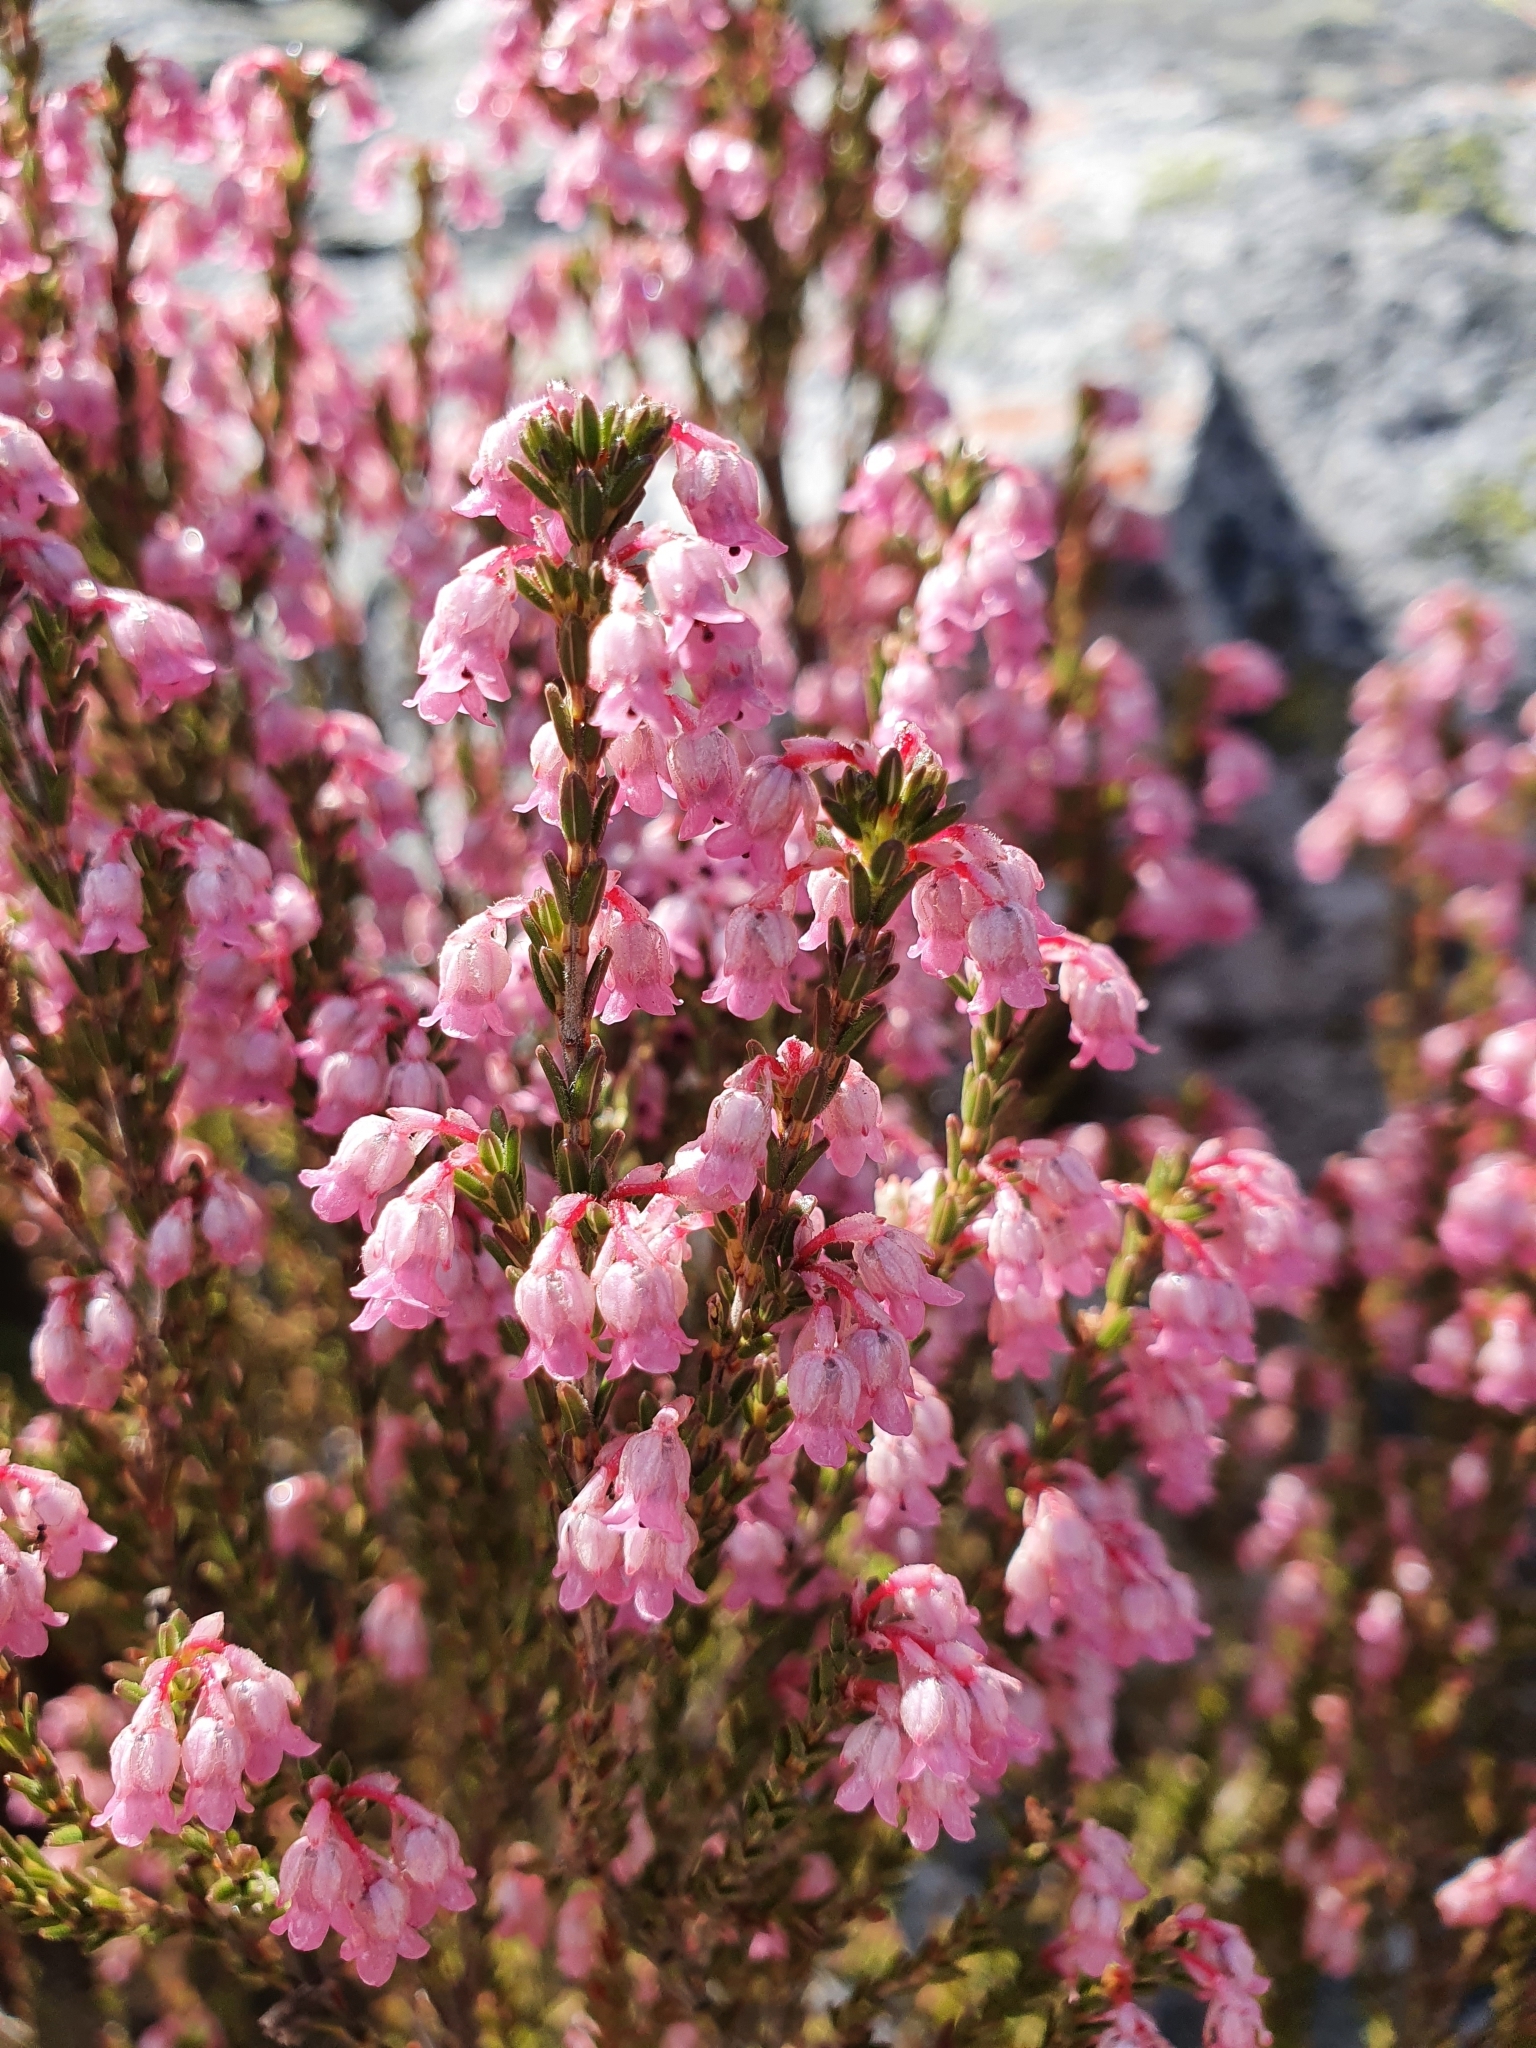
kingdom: Plantae
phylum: Tracheophyta
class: Magnoliopsida
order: Ericales
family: Ericaceae
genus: Erica
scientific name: Erica brevifolia
